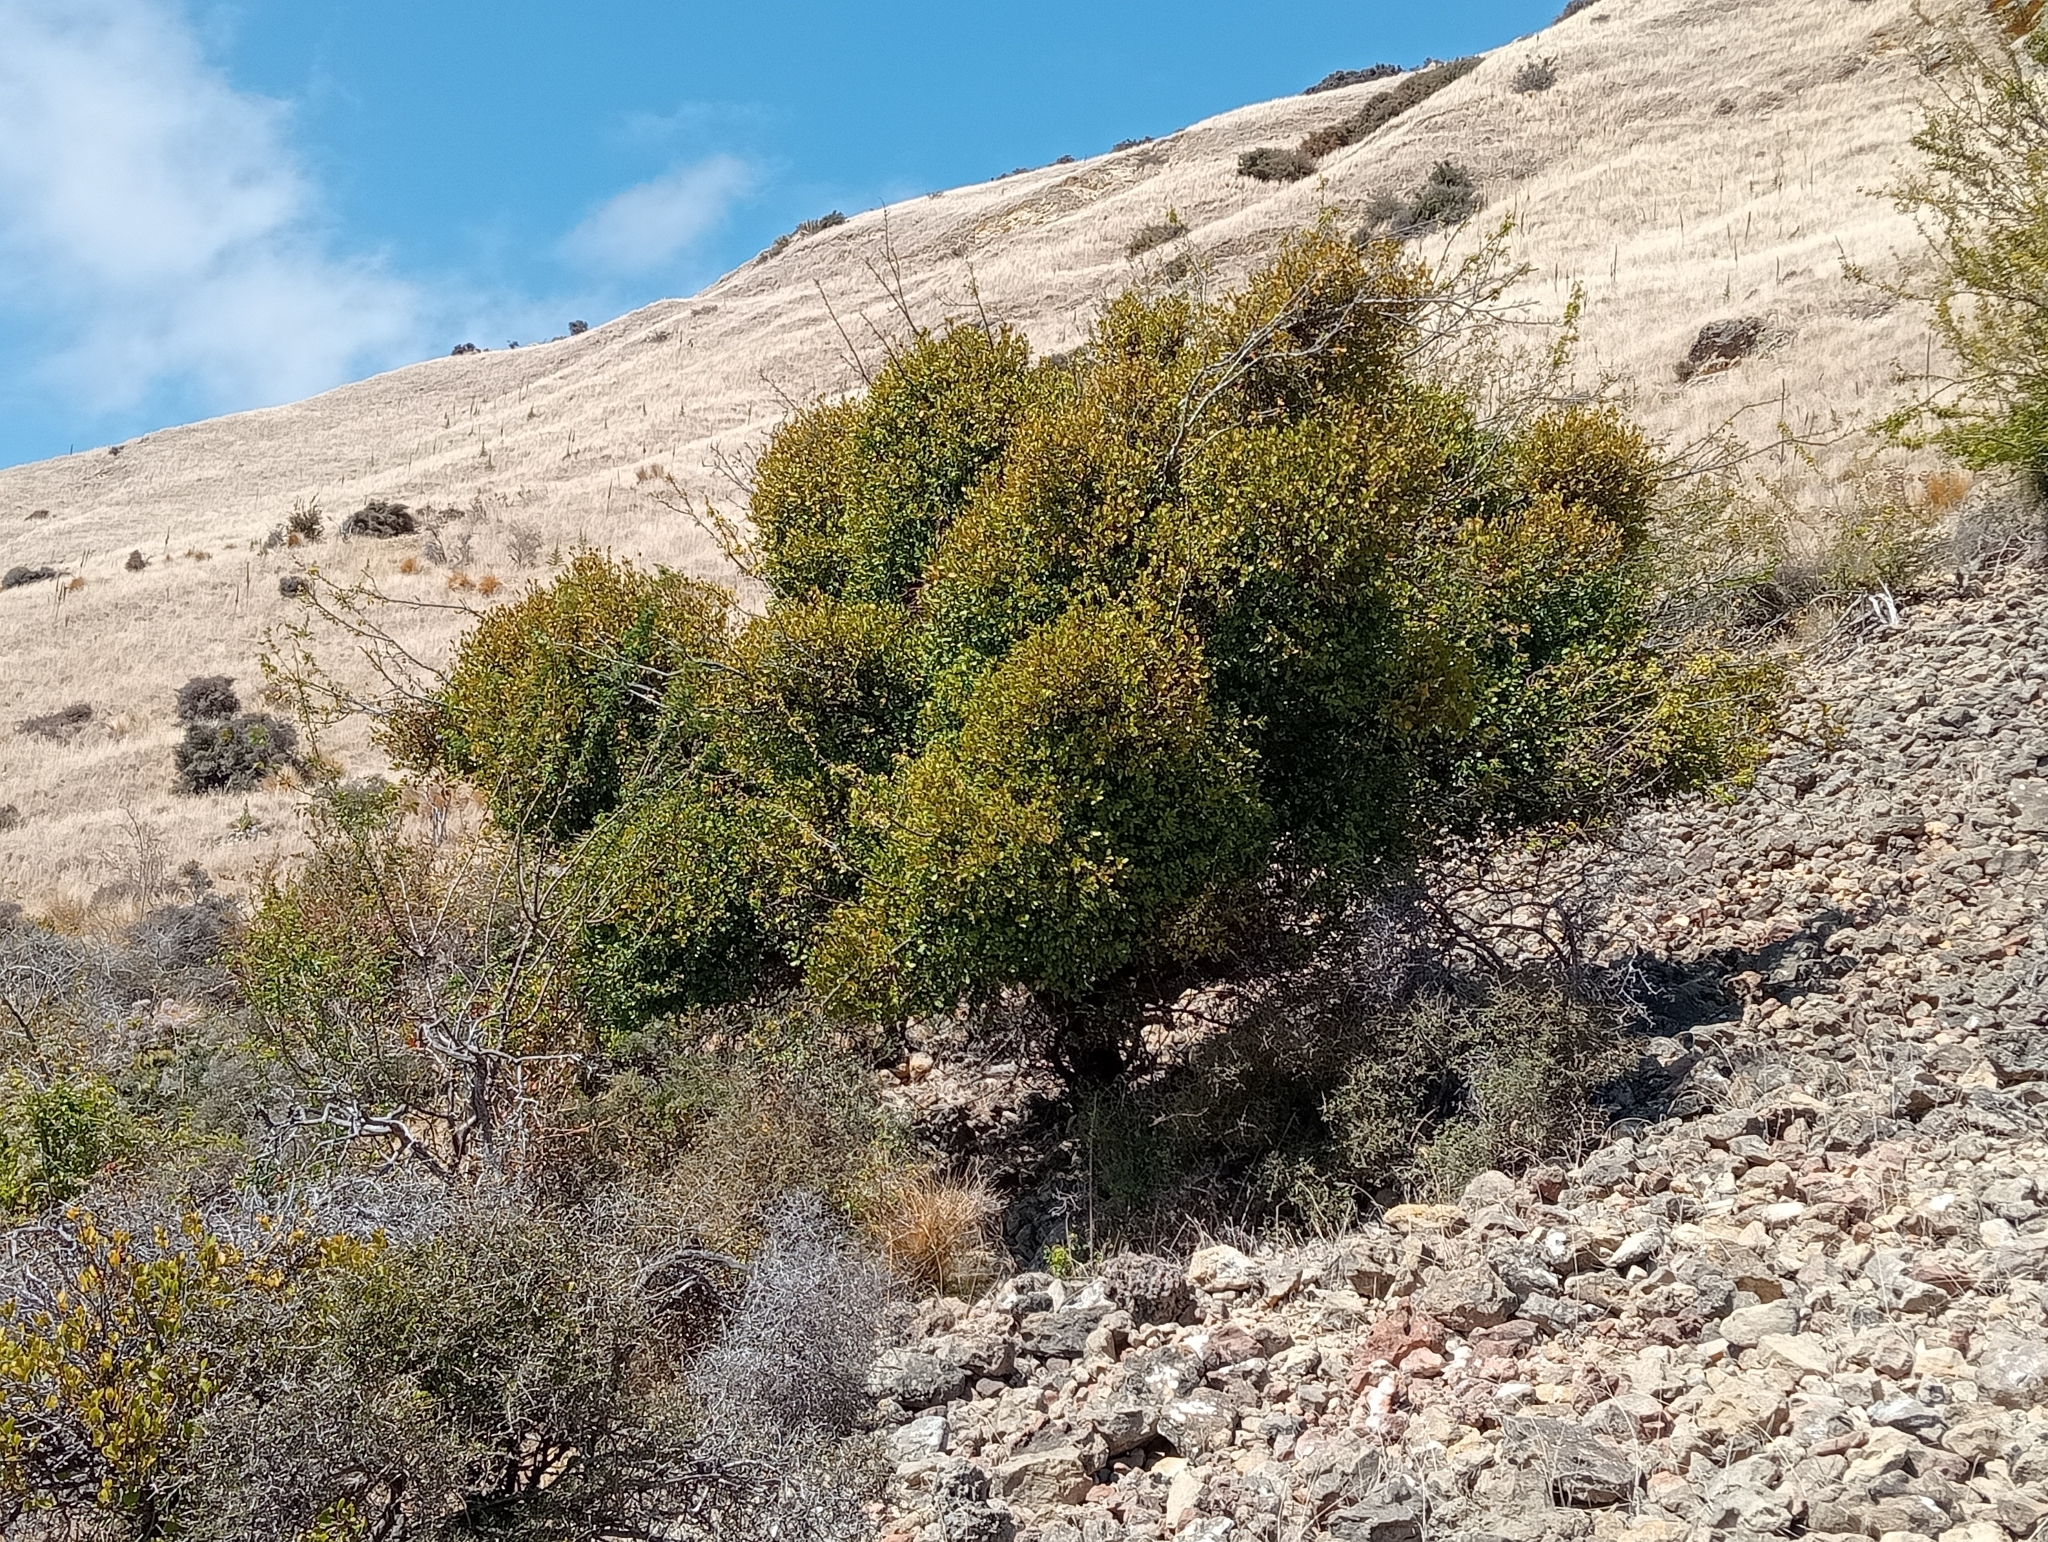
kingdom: Plantae
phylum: Tracheophyta
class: Magnoliopsida
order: Santalales
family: Loranthaceae
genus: Ileostylus
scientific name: Ileostylus micranthus
